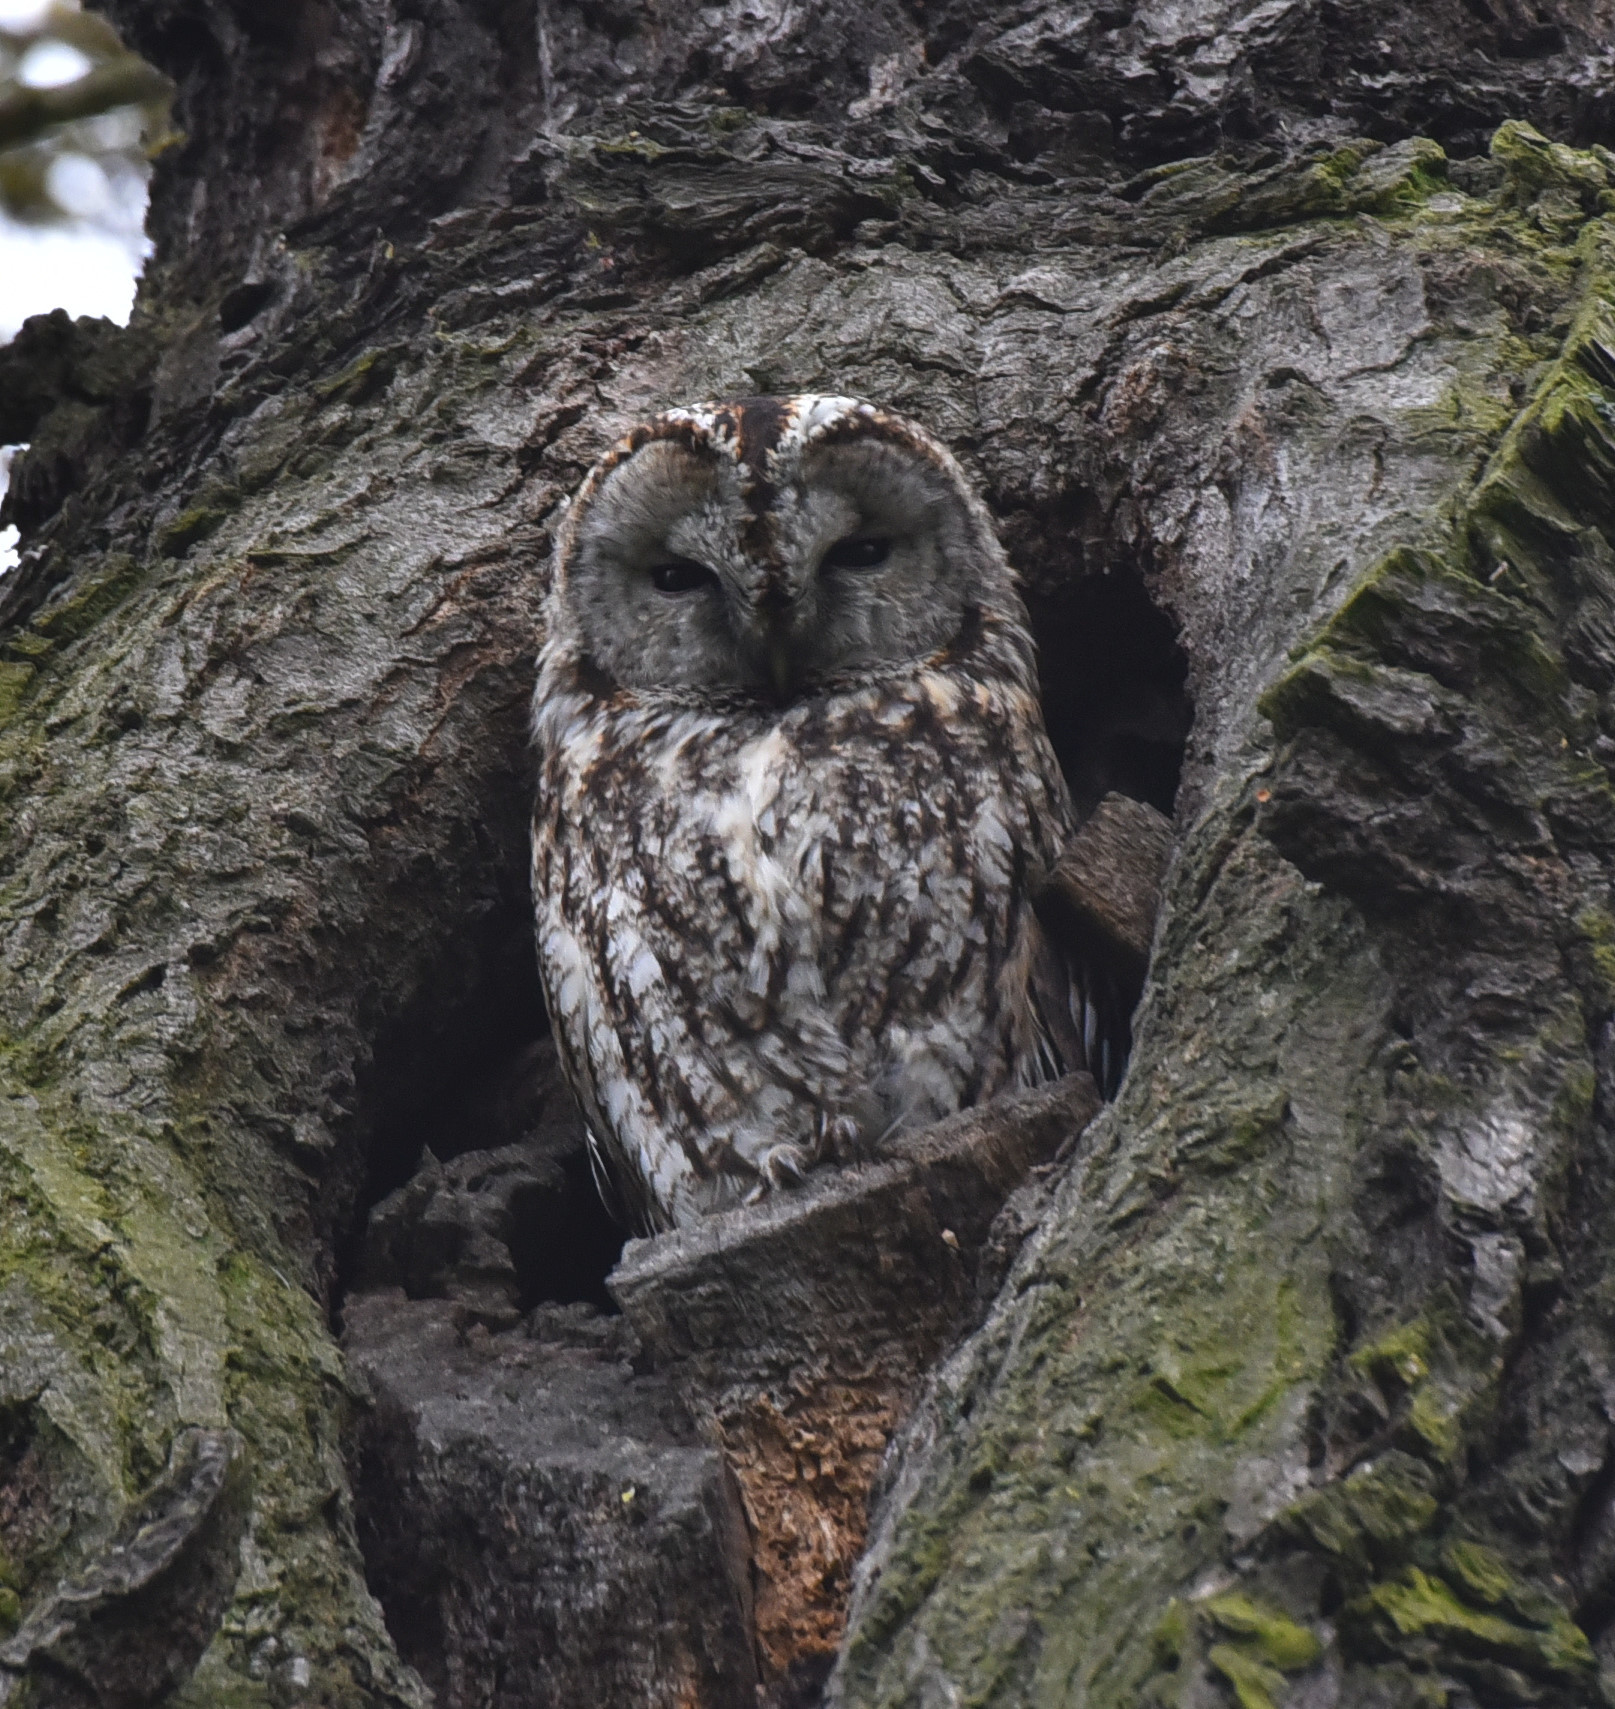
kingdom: Animalia
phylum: Chordata
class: Aves
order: Strigiformes
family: Strigidae
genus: Strix
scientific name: Strix aluco
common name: Tawny owl
